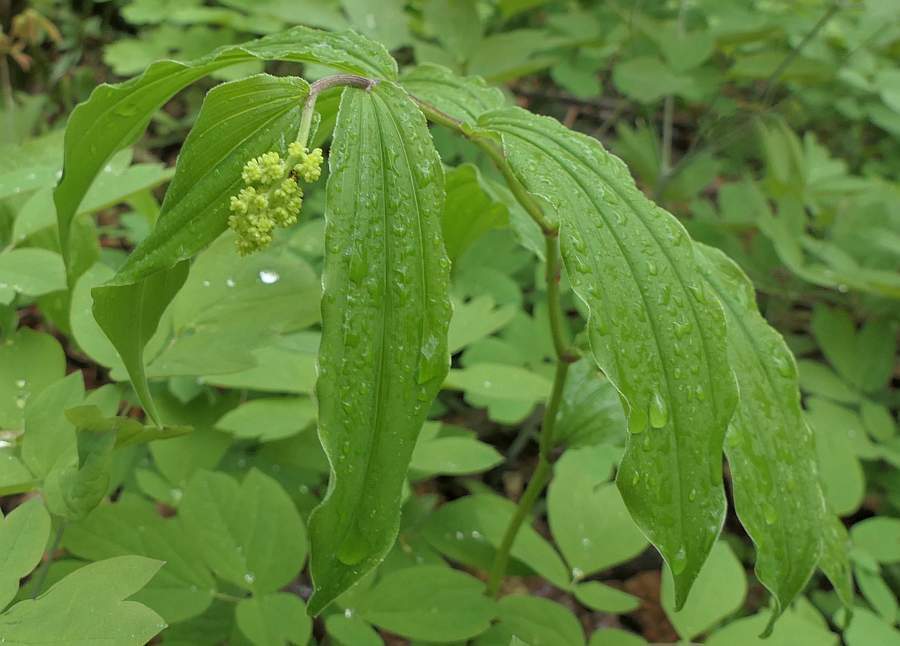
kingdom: Plantae
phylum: Tracheophyta
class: Liliopsida
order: Asparagales
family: Asparagaceae
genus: Maianthemum
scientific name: Maianthemum racemosum
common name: False spikenard
